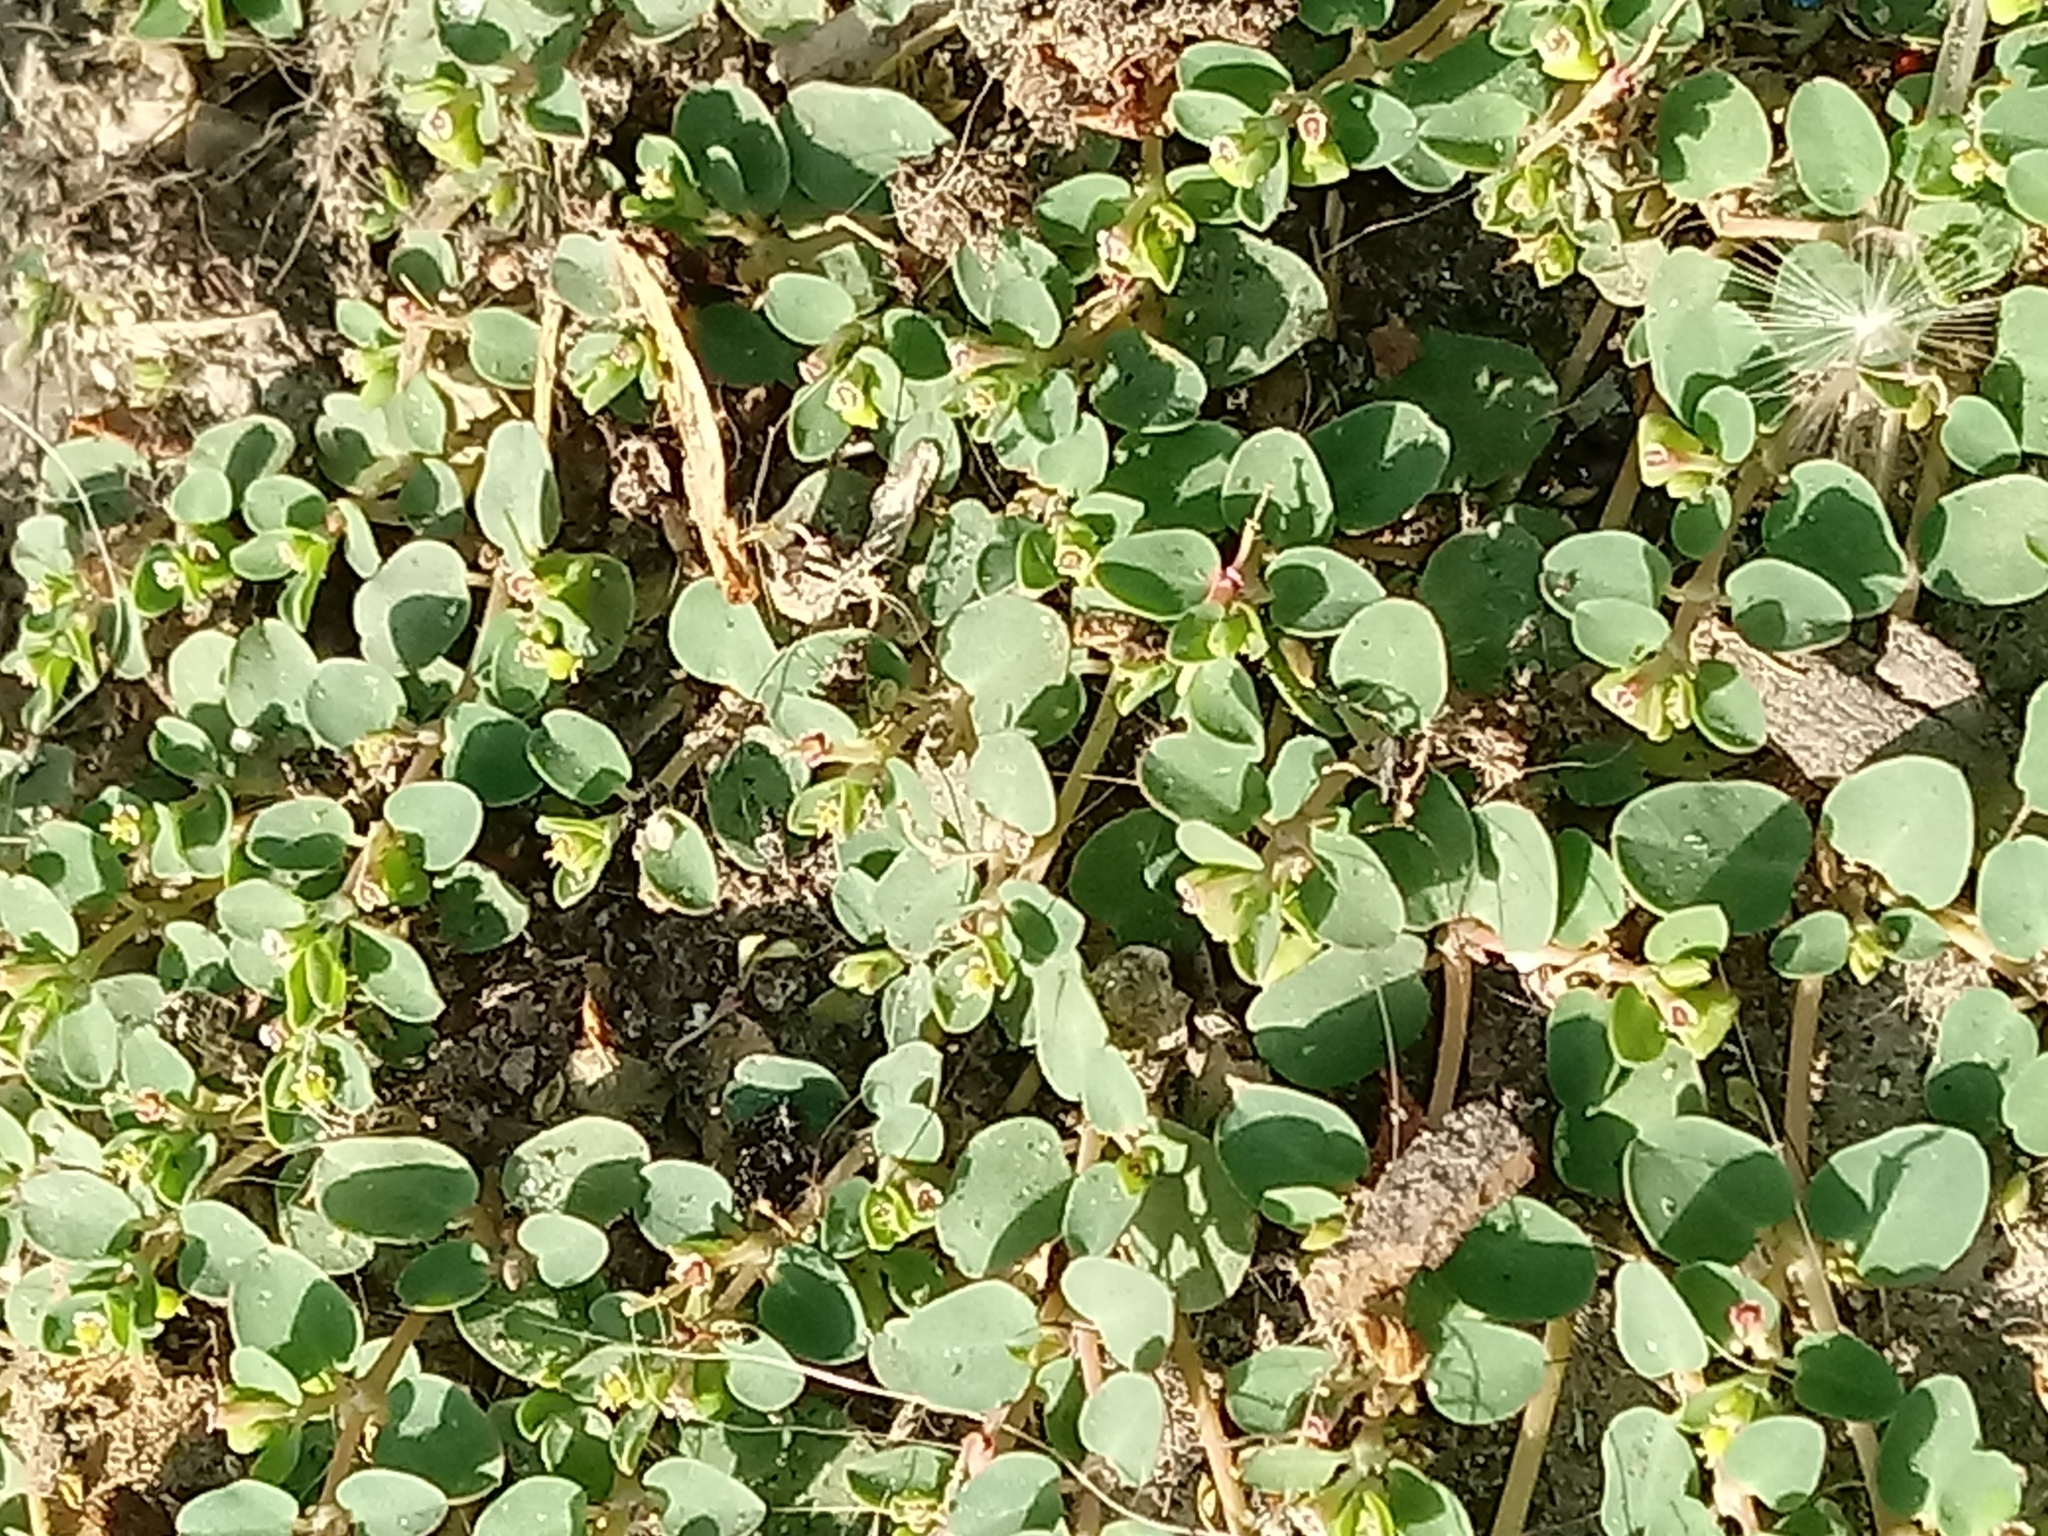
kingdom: Plantae
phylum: Tracheophyta
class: Magnoliopsida
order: Malpighiales
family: Euphorbiaceae
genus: Euphorbia
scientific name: Euphorbia serpens
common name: Matted sandmat
